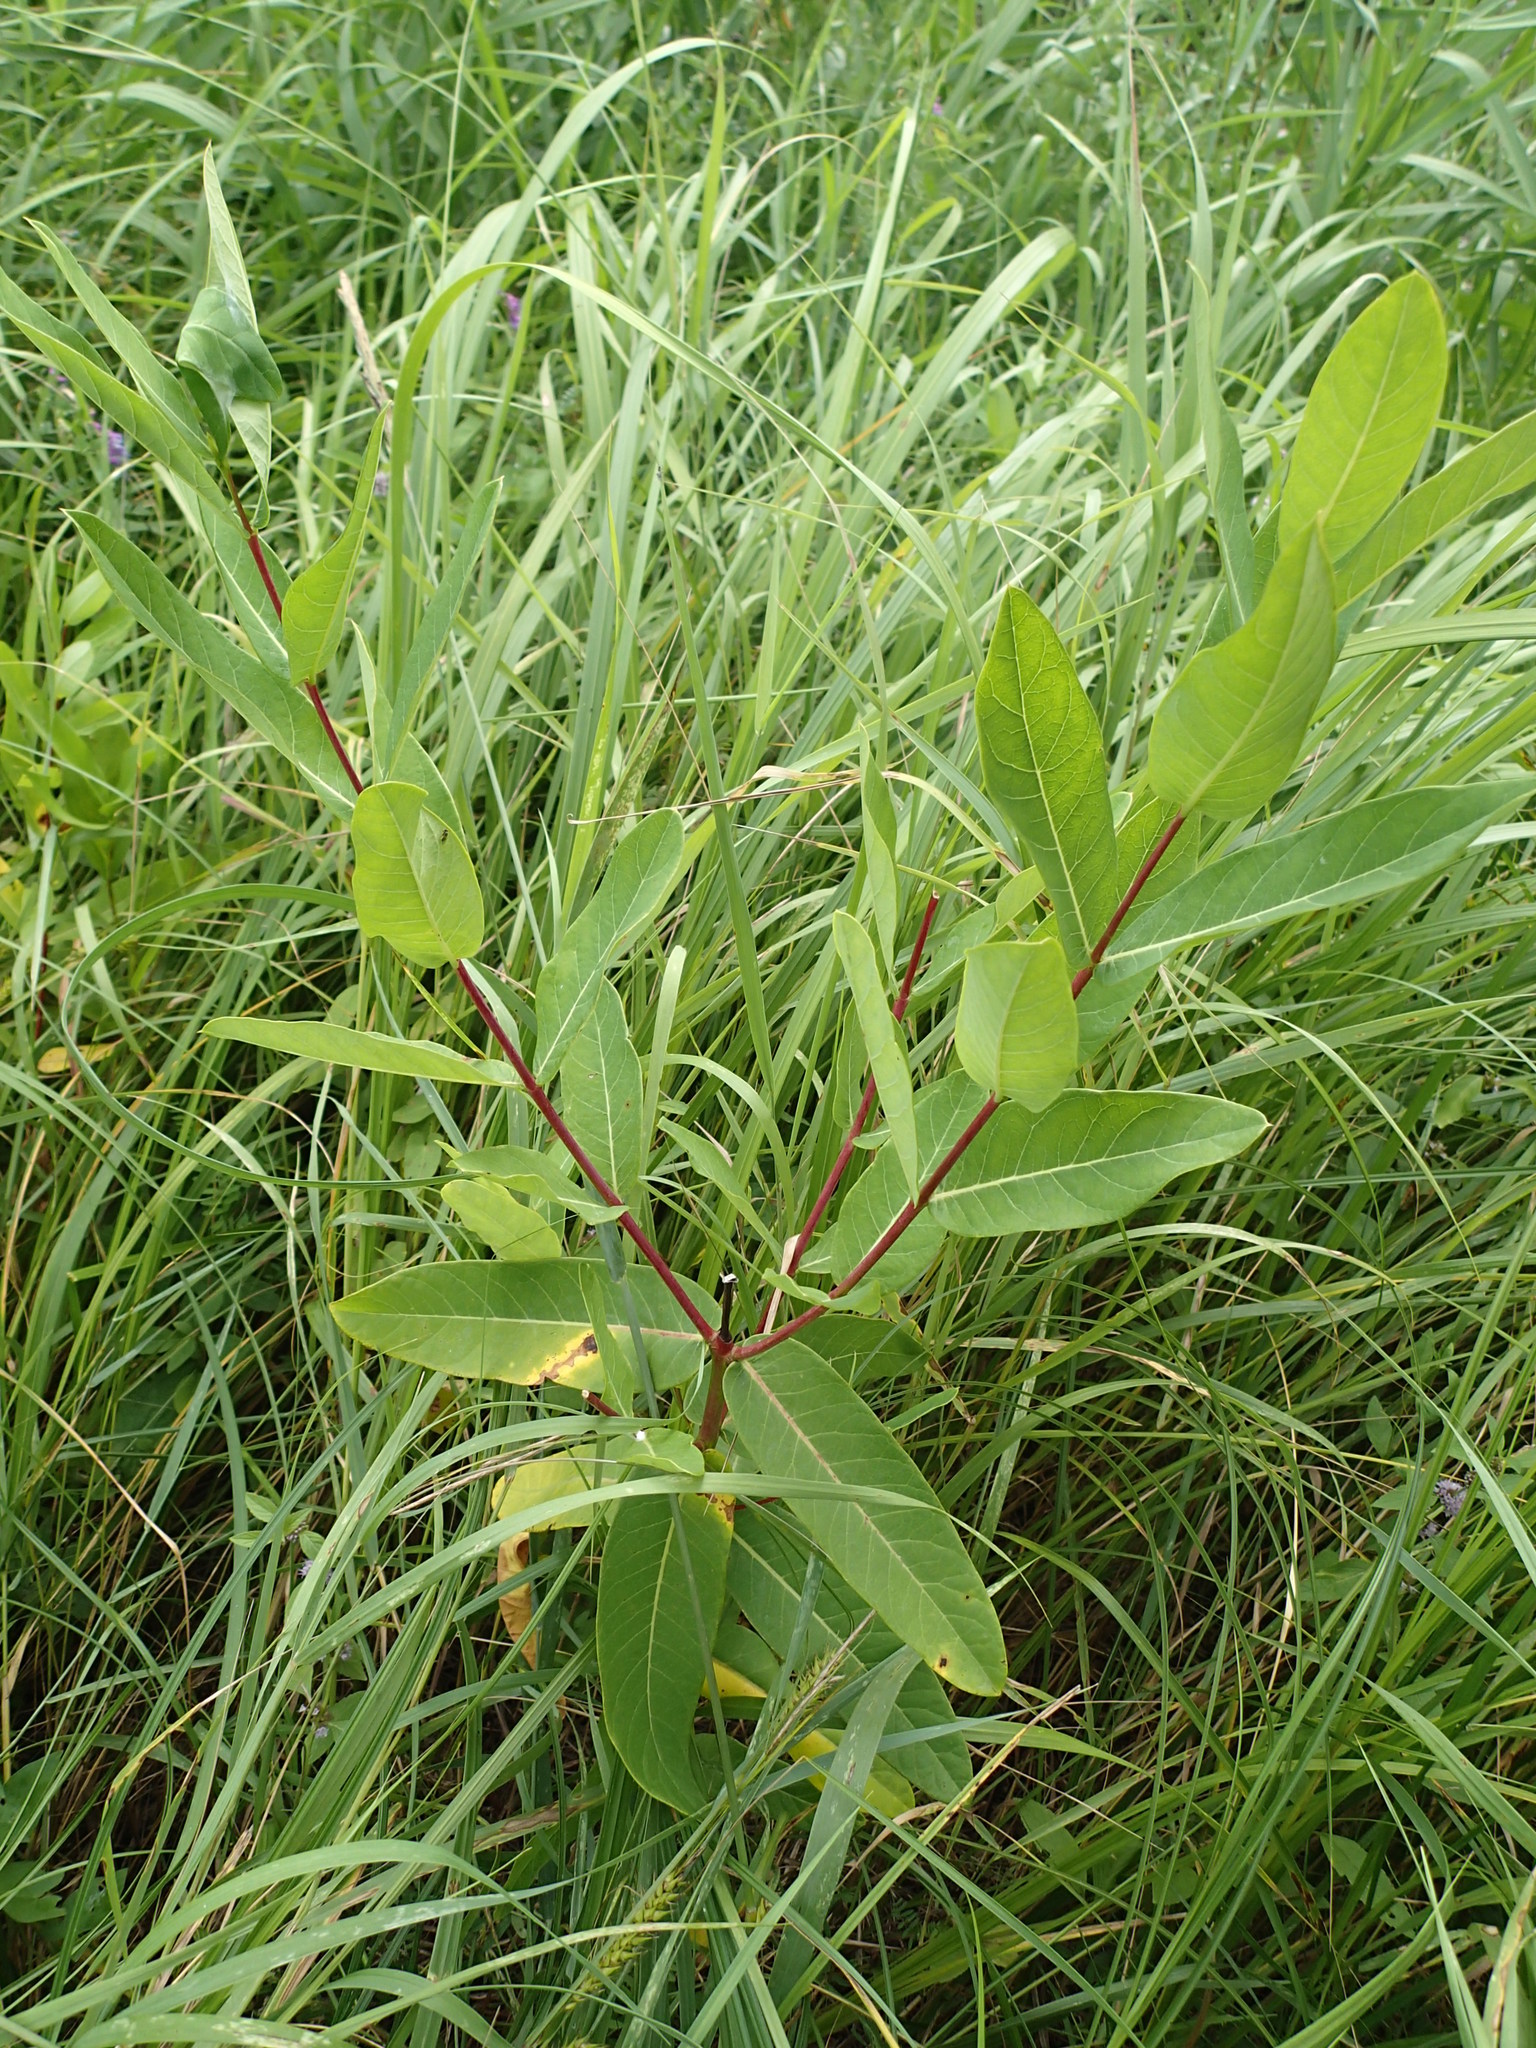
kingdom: Plantae
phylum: Tracheophyta
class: Magnoliopsida
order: Gentianales
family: Apocynaceae
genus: Apocynum
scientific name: Apocynum cannabinum
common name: Hemp dogbane
